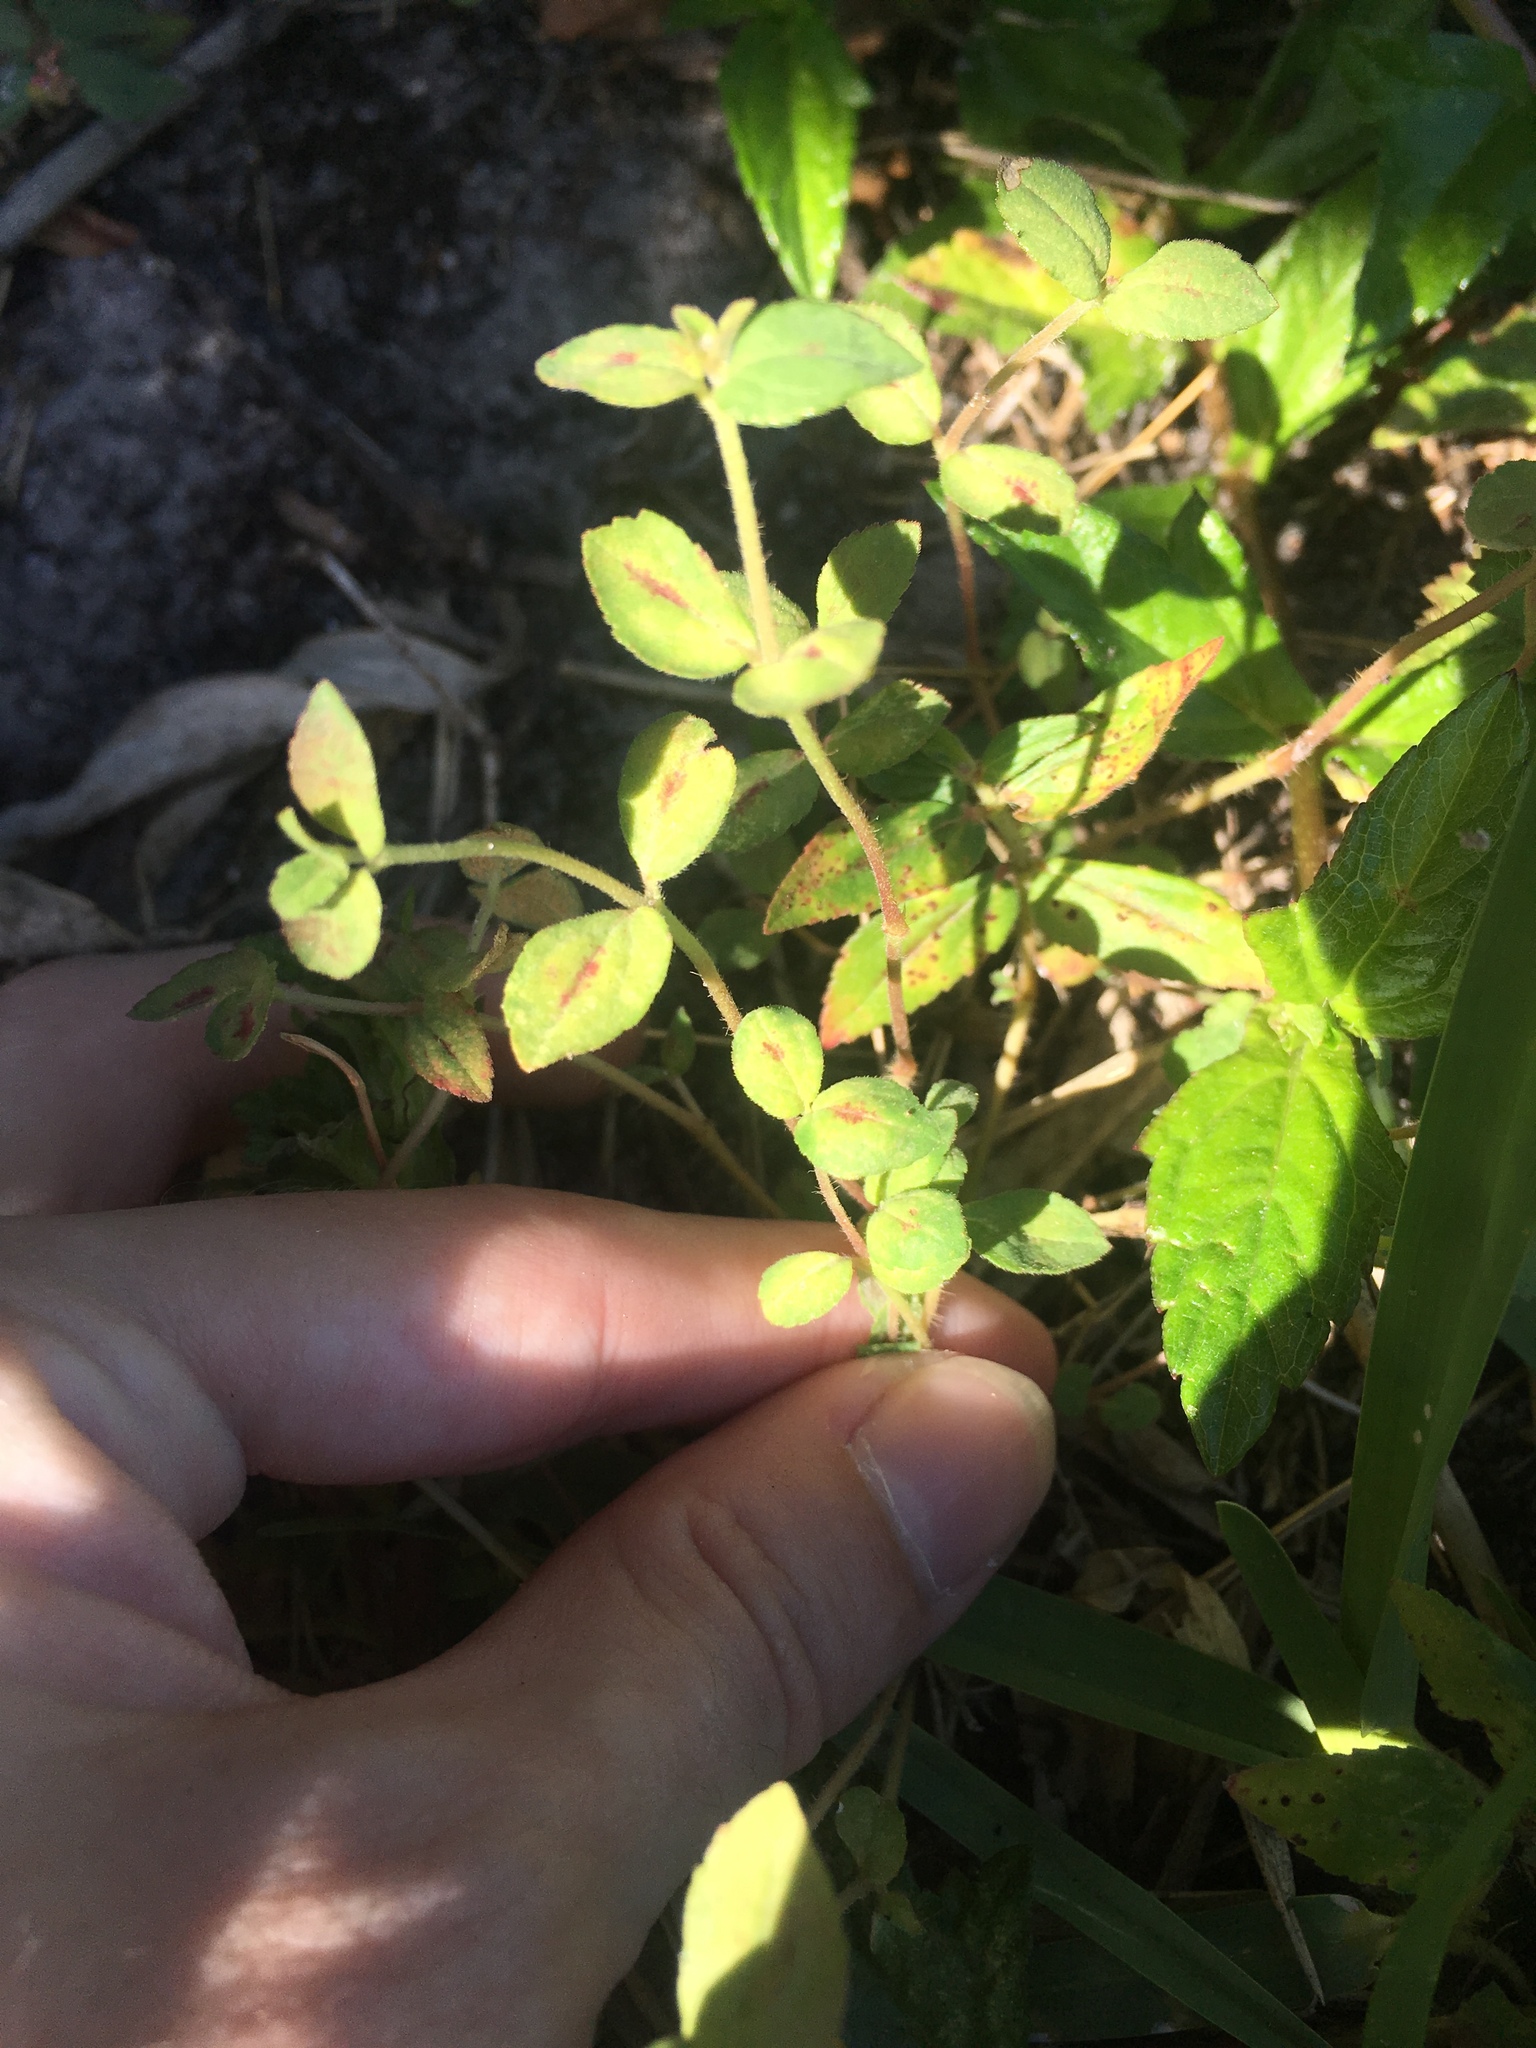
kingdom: Plantae
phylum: Tracheophyta
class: Magnoliopsida
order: Malpighiales
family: Euphorbiaceae
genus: Euphorbia
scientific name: Euphorbia hirta
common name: Pillpod sandmat
